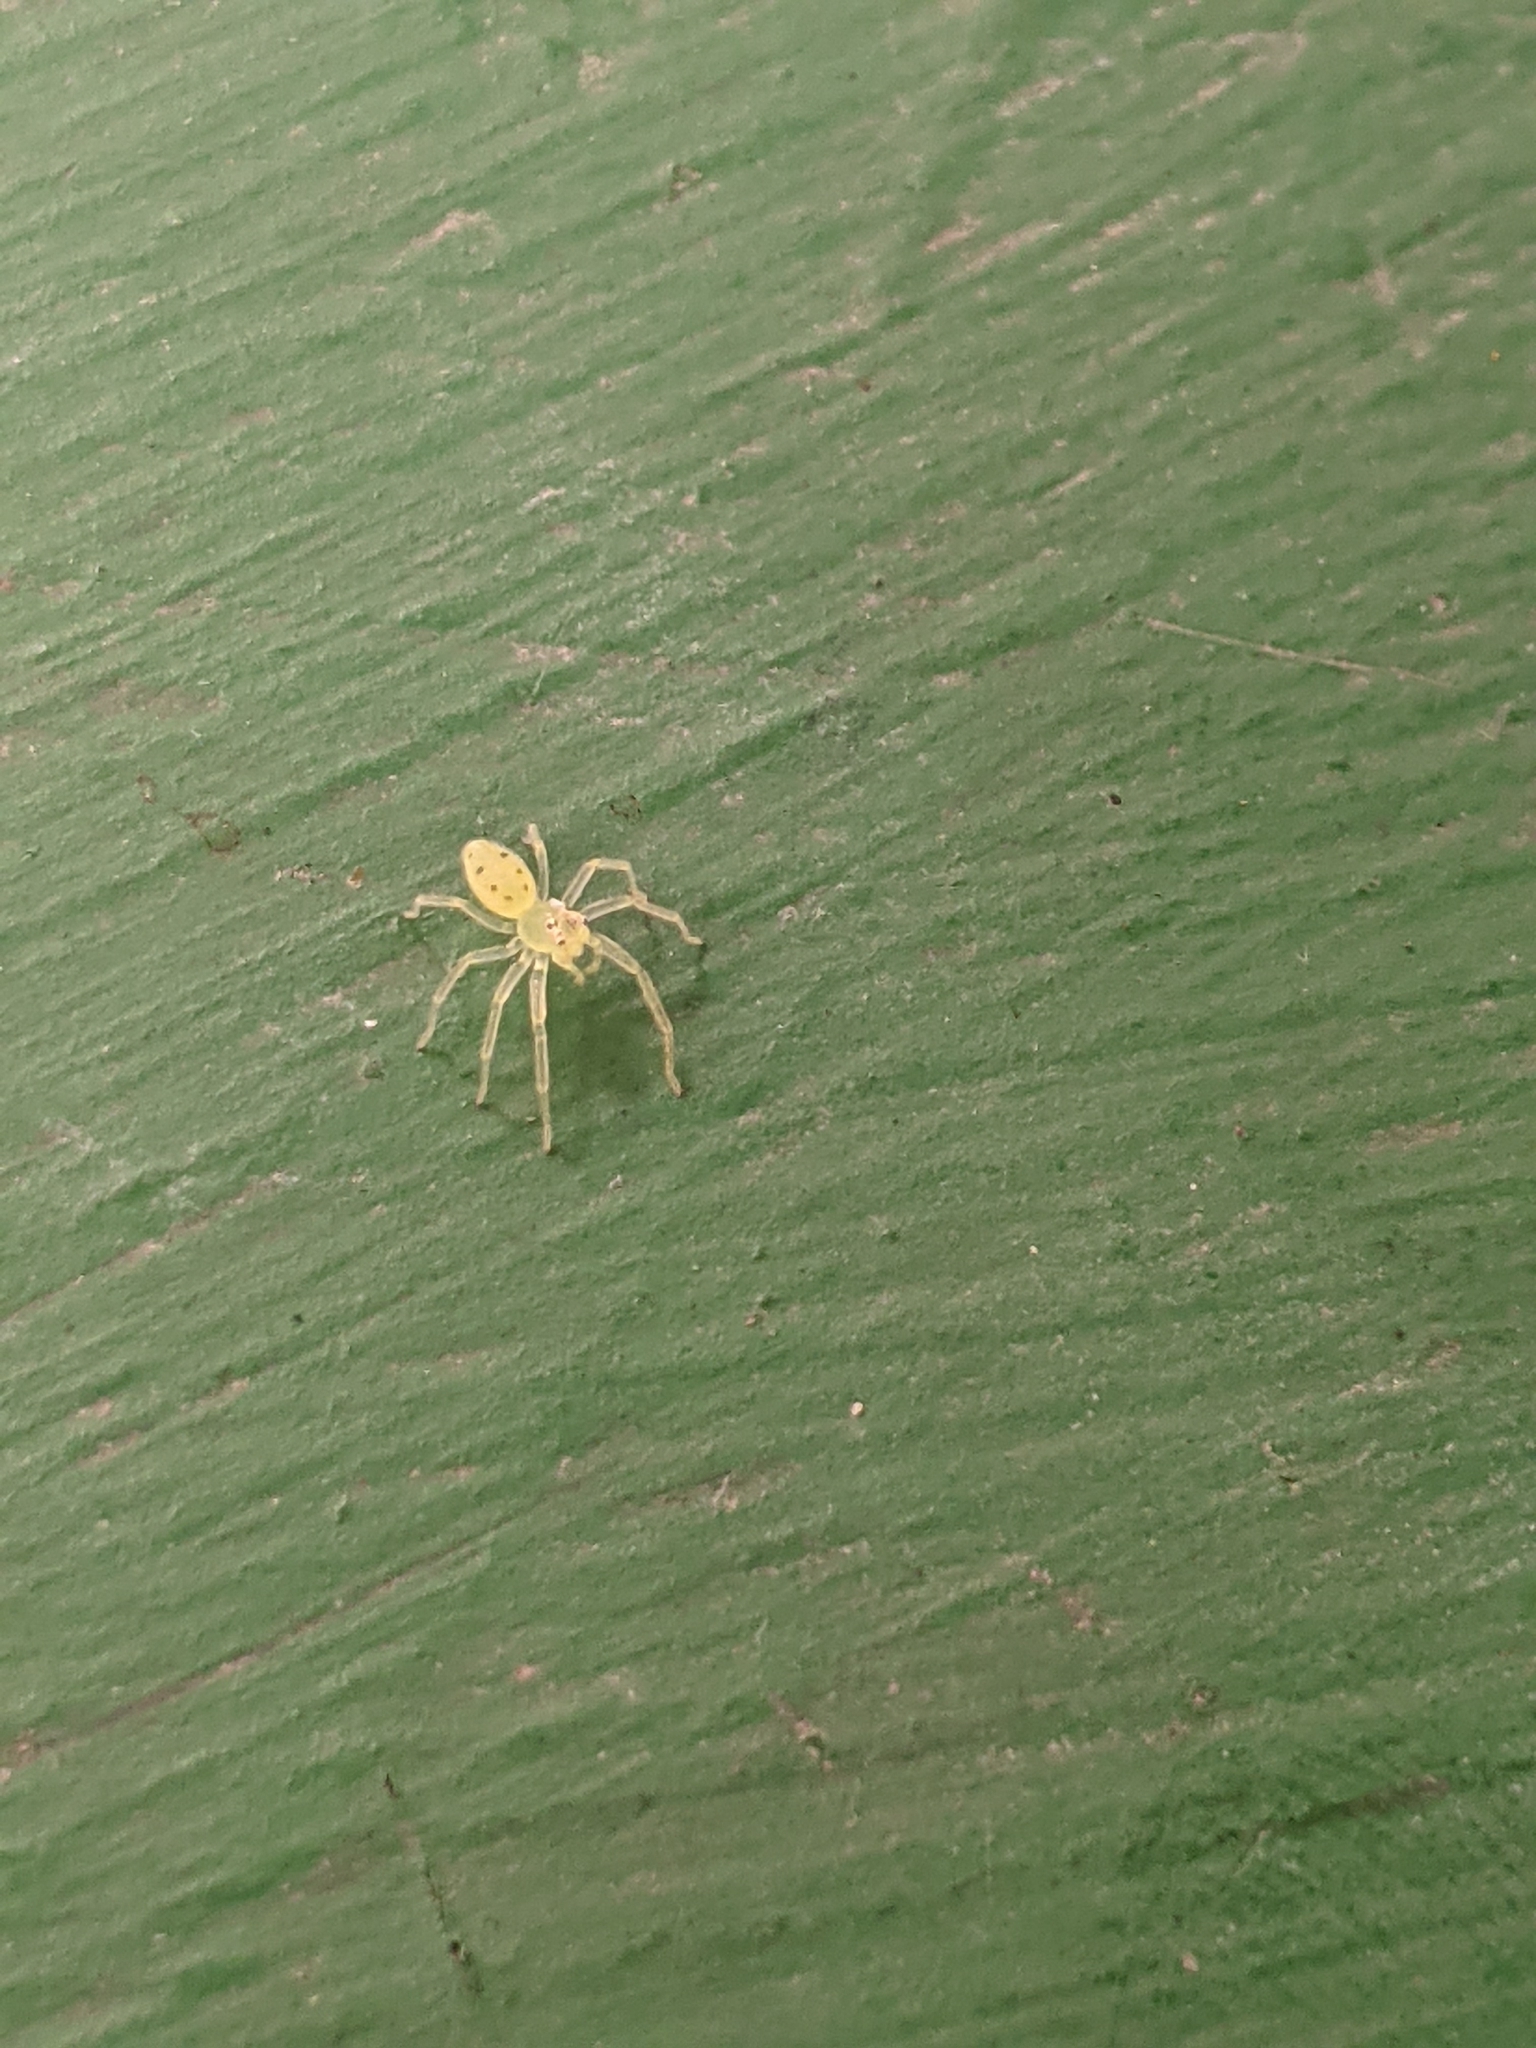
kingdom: Animalia
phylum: Arthropoda
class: Arachnida
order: Araneae
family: Salticidae
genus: Lyssomanes
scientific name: Lyssomanes viridis
